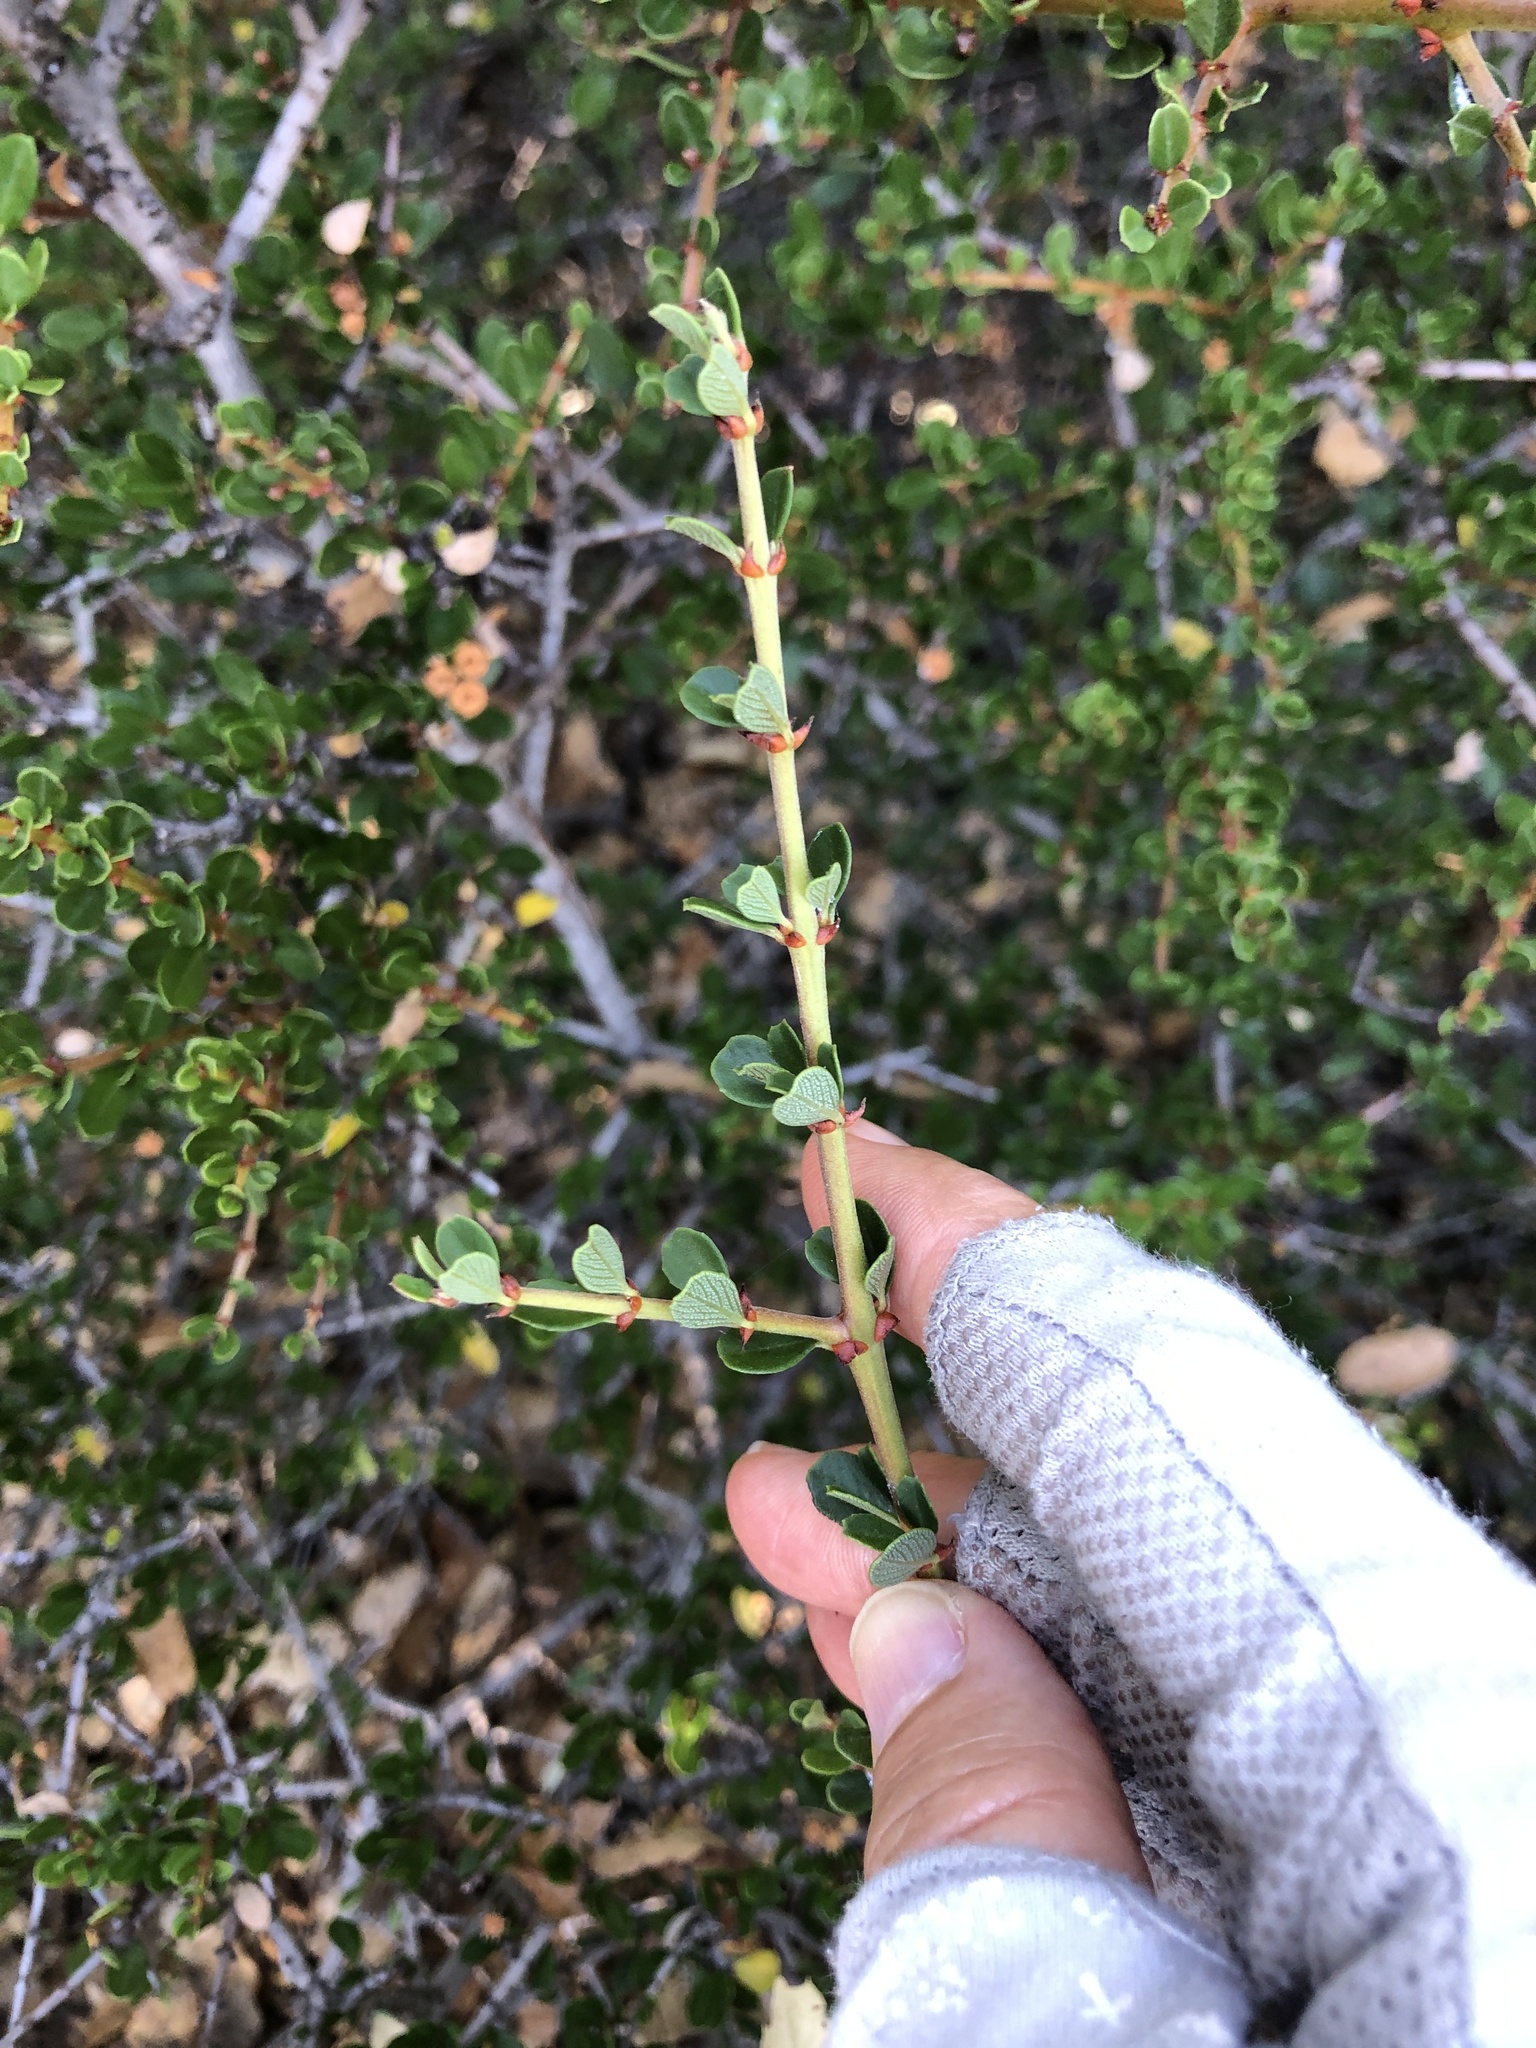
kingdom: Plantae
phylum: Tracheophyta
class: Magnoliopsida
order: Rosales
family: Rhamnaceae
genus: Ceanothus
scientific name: Ceanothus cuneatus
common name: Cuneate ceanothus
